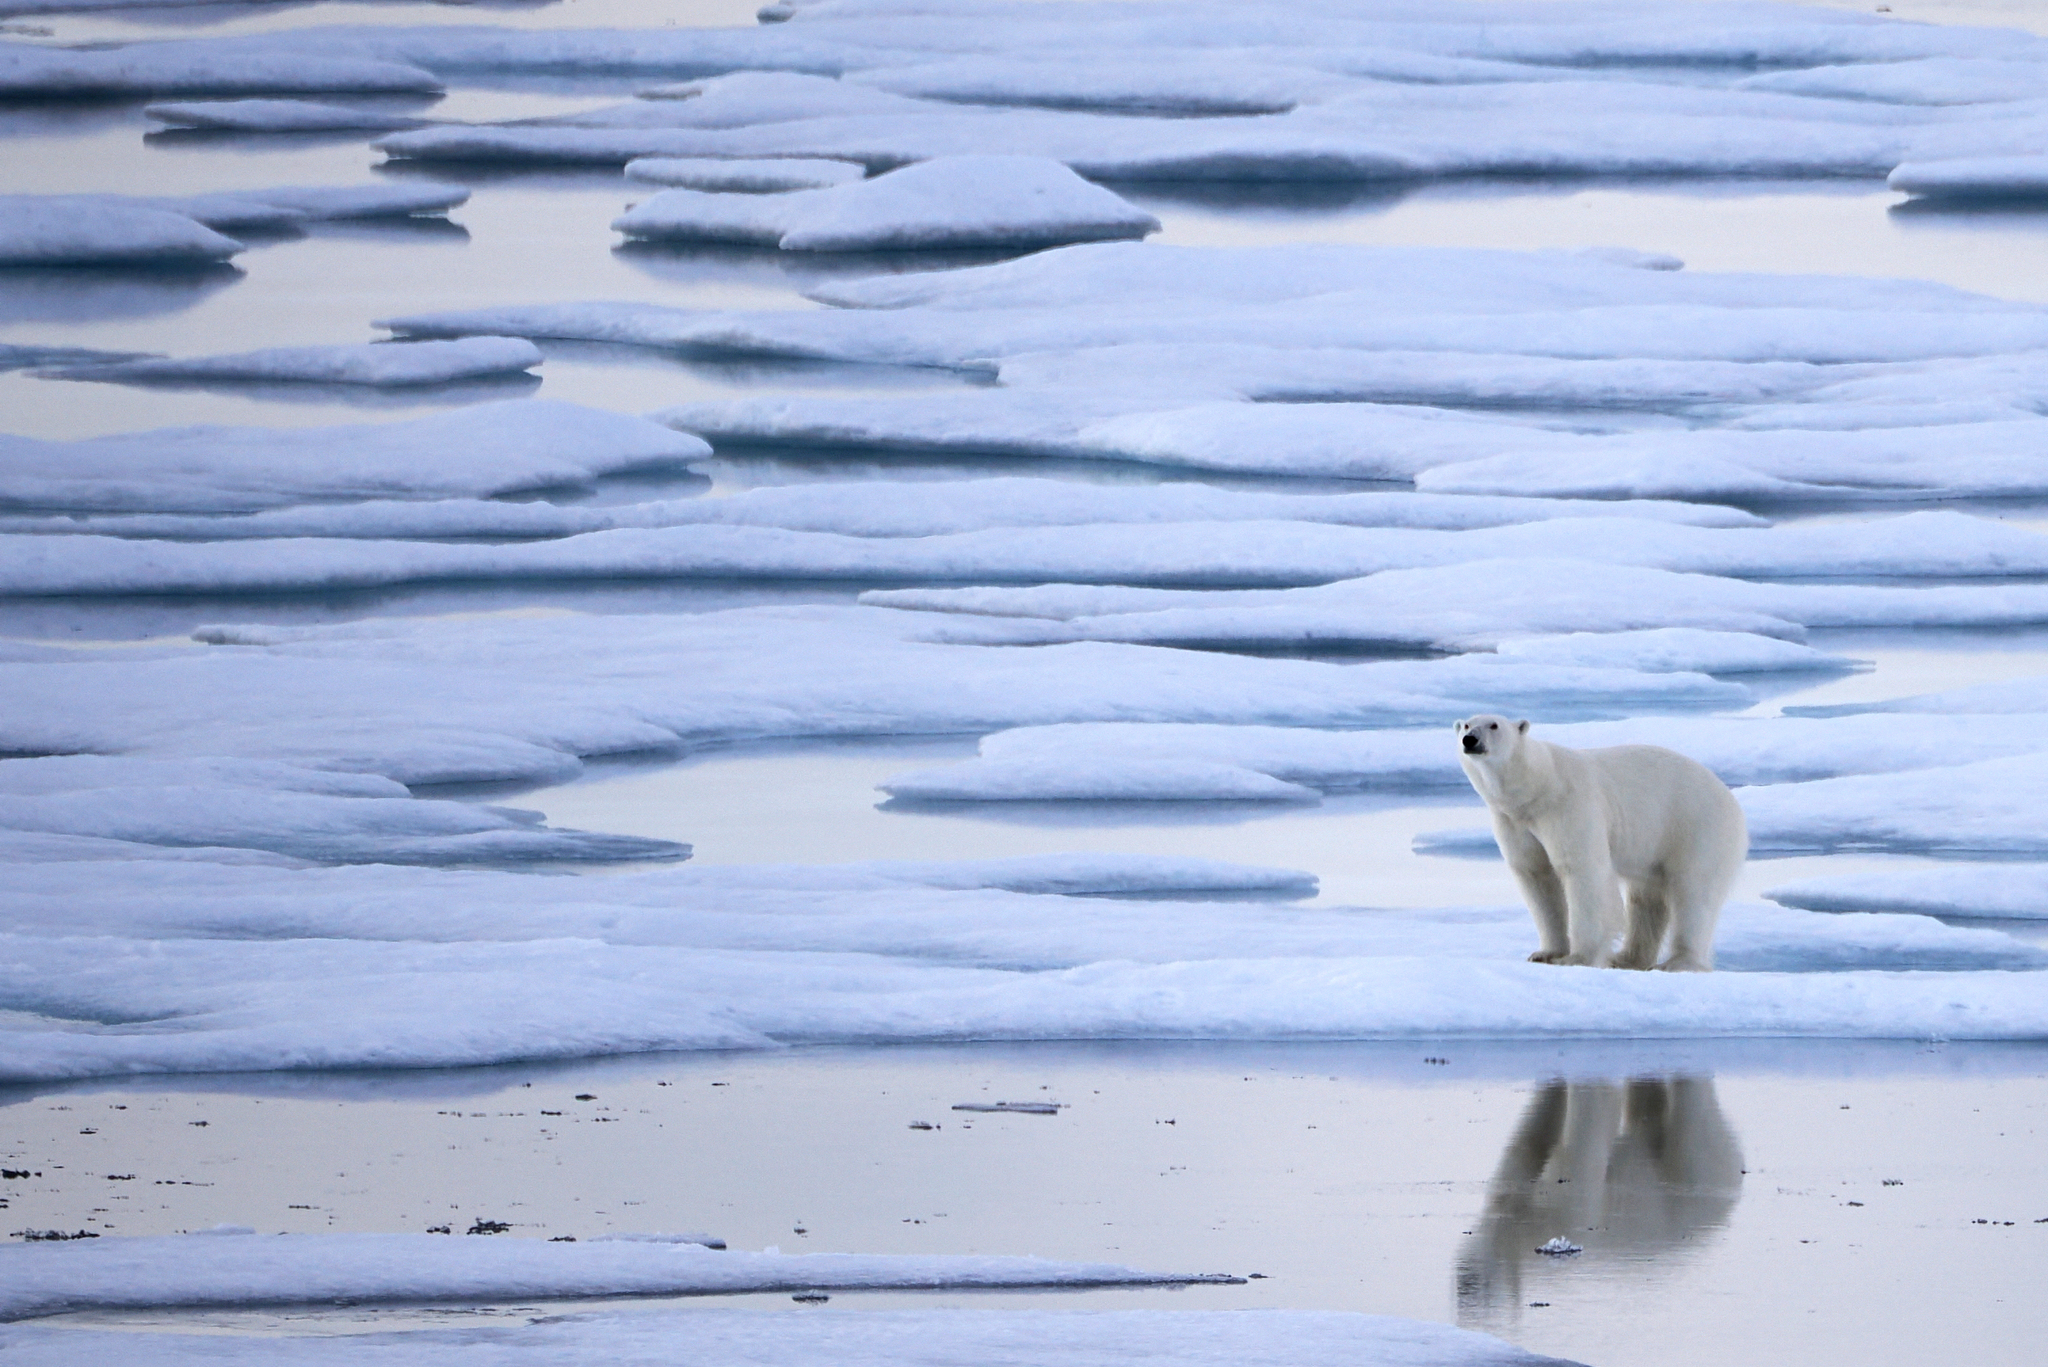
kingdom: Animalia
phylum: Chordata
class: Mammalia
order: Carnivora
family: Ursidae
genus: Ursus
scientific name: Ursus maritimus
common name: Polar bear
